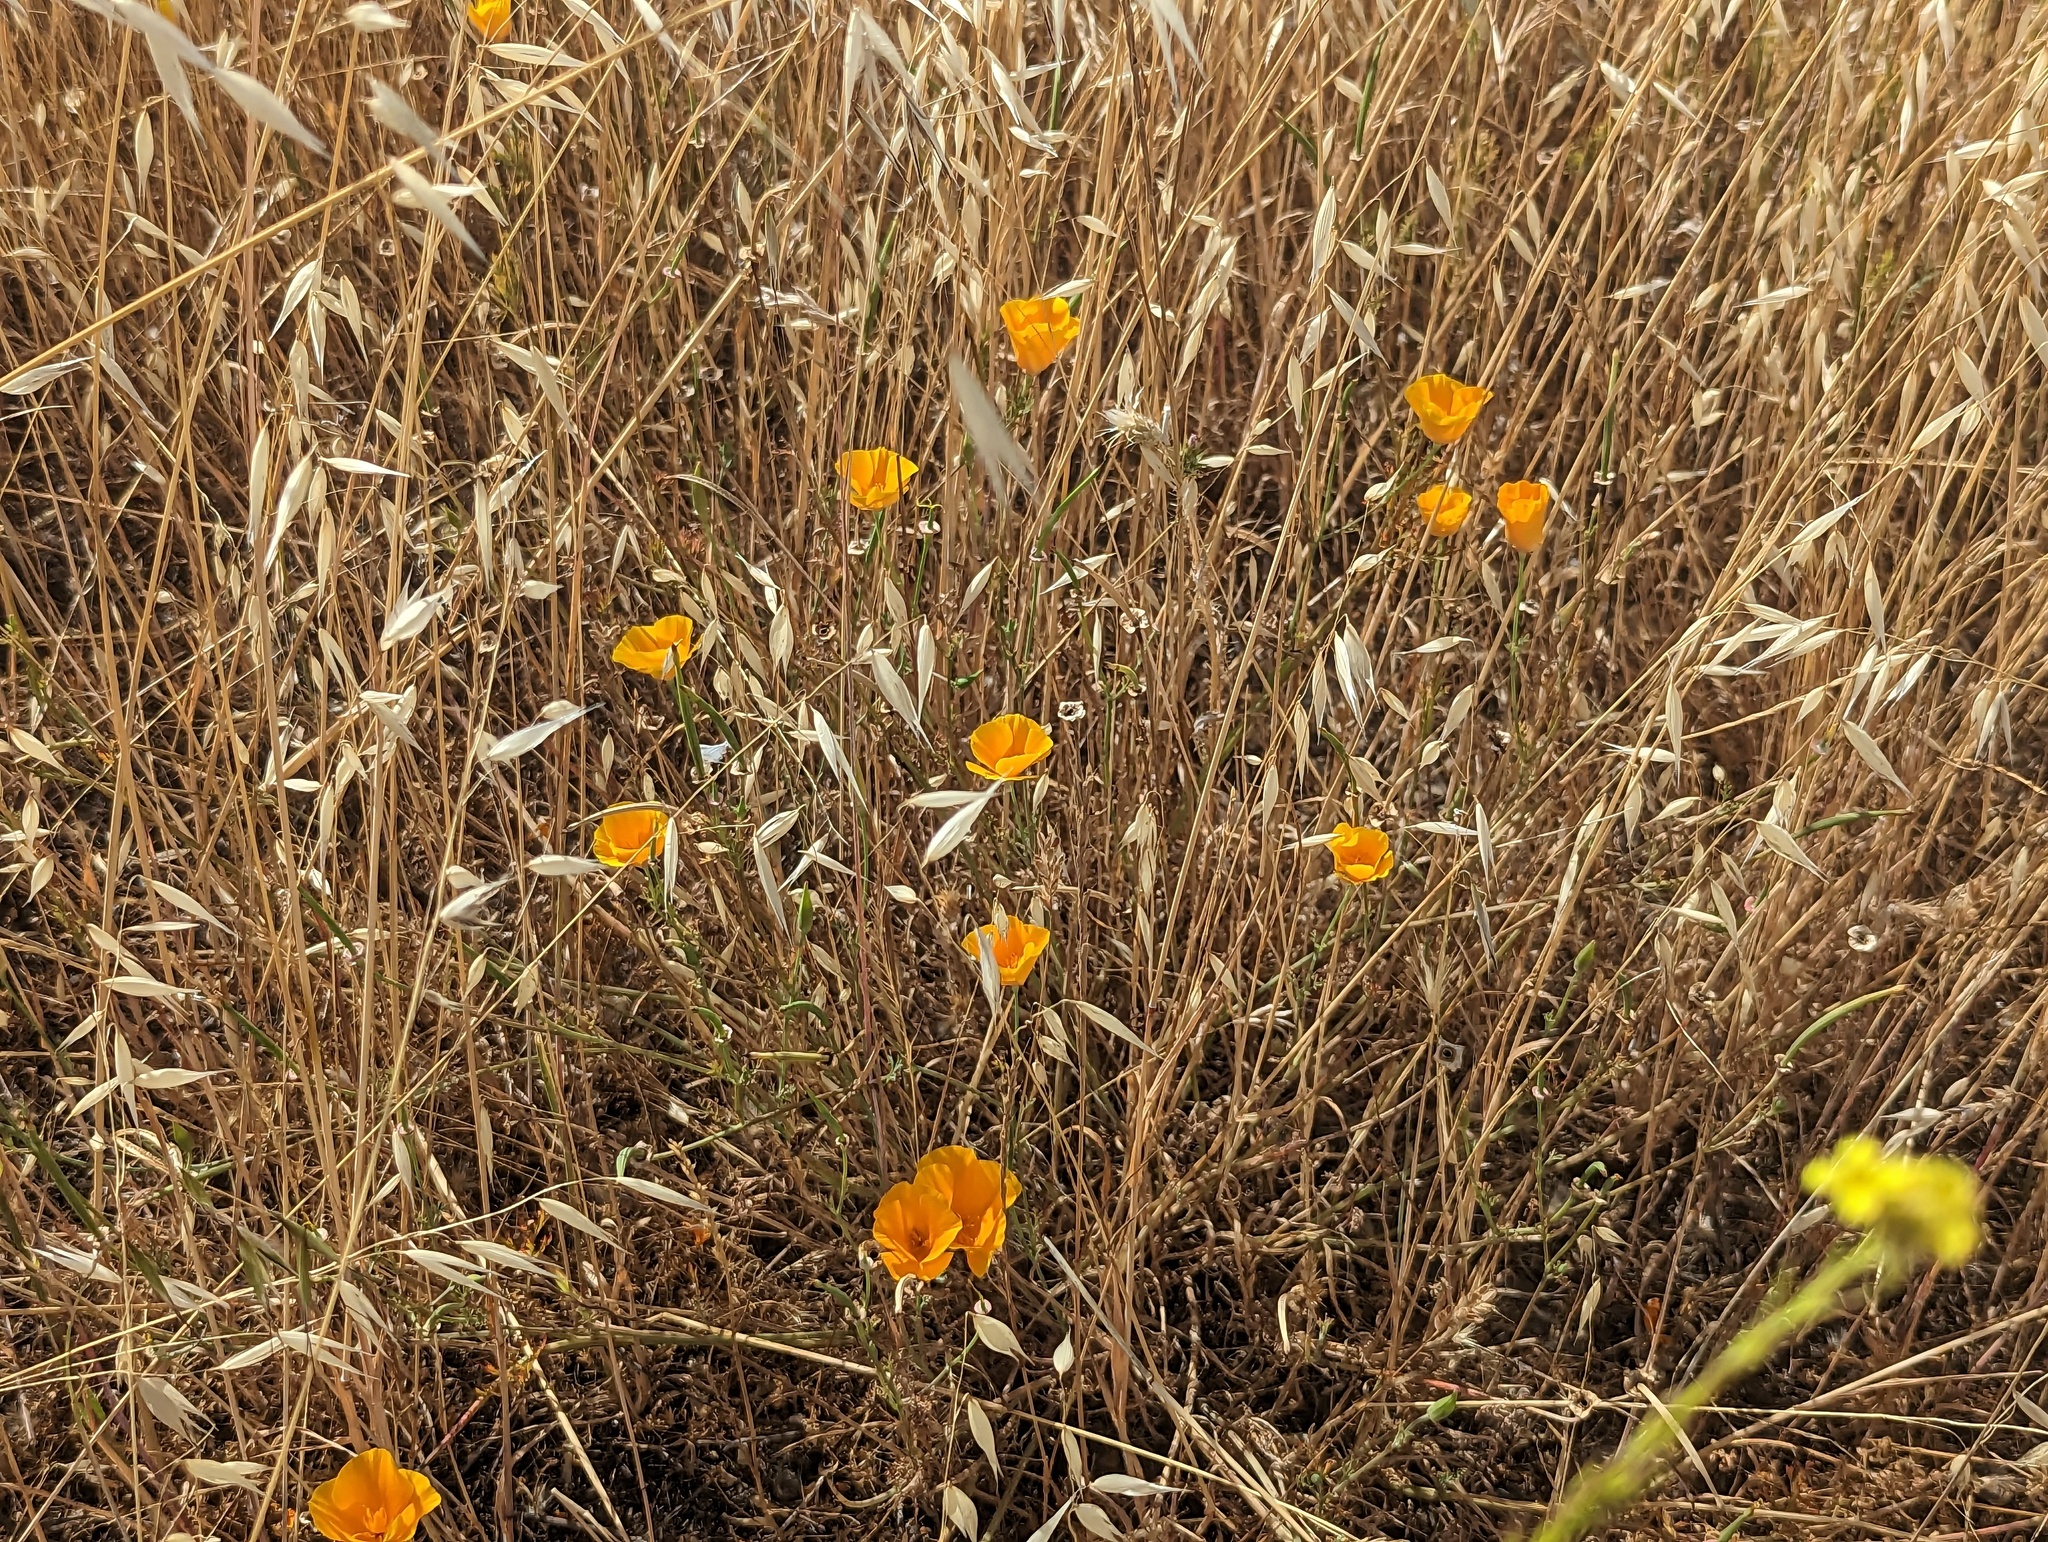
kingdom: Plantae
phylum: Tracheophyta
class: Magnoliopsida
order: Ranunculales
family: Papaveraceae
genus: Eschscholzia
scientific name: Eschscholzia californica
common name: California poppy
